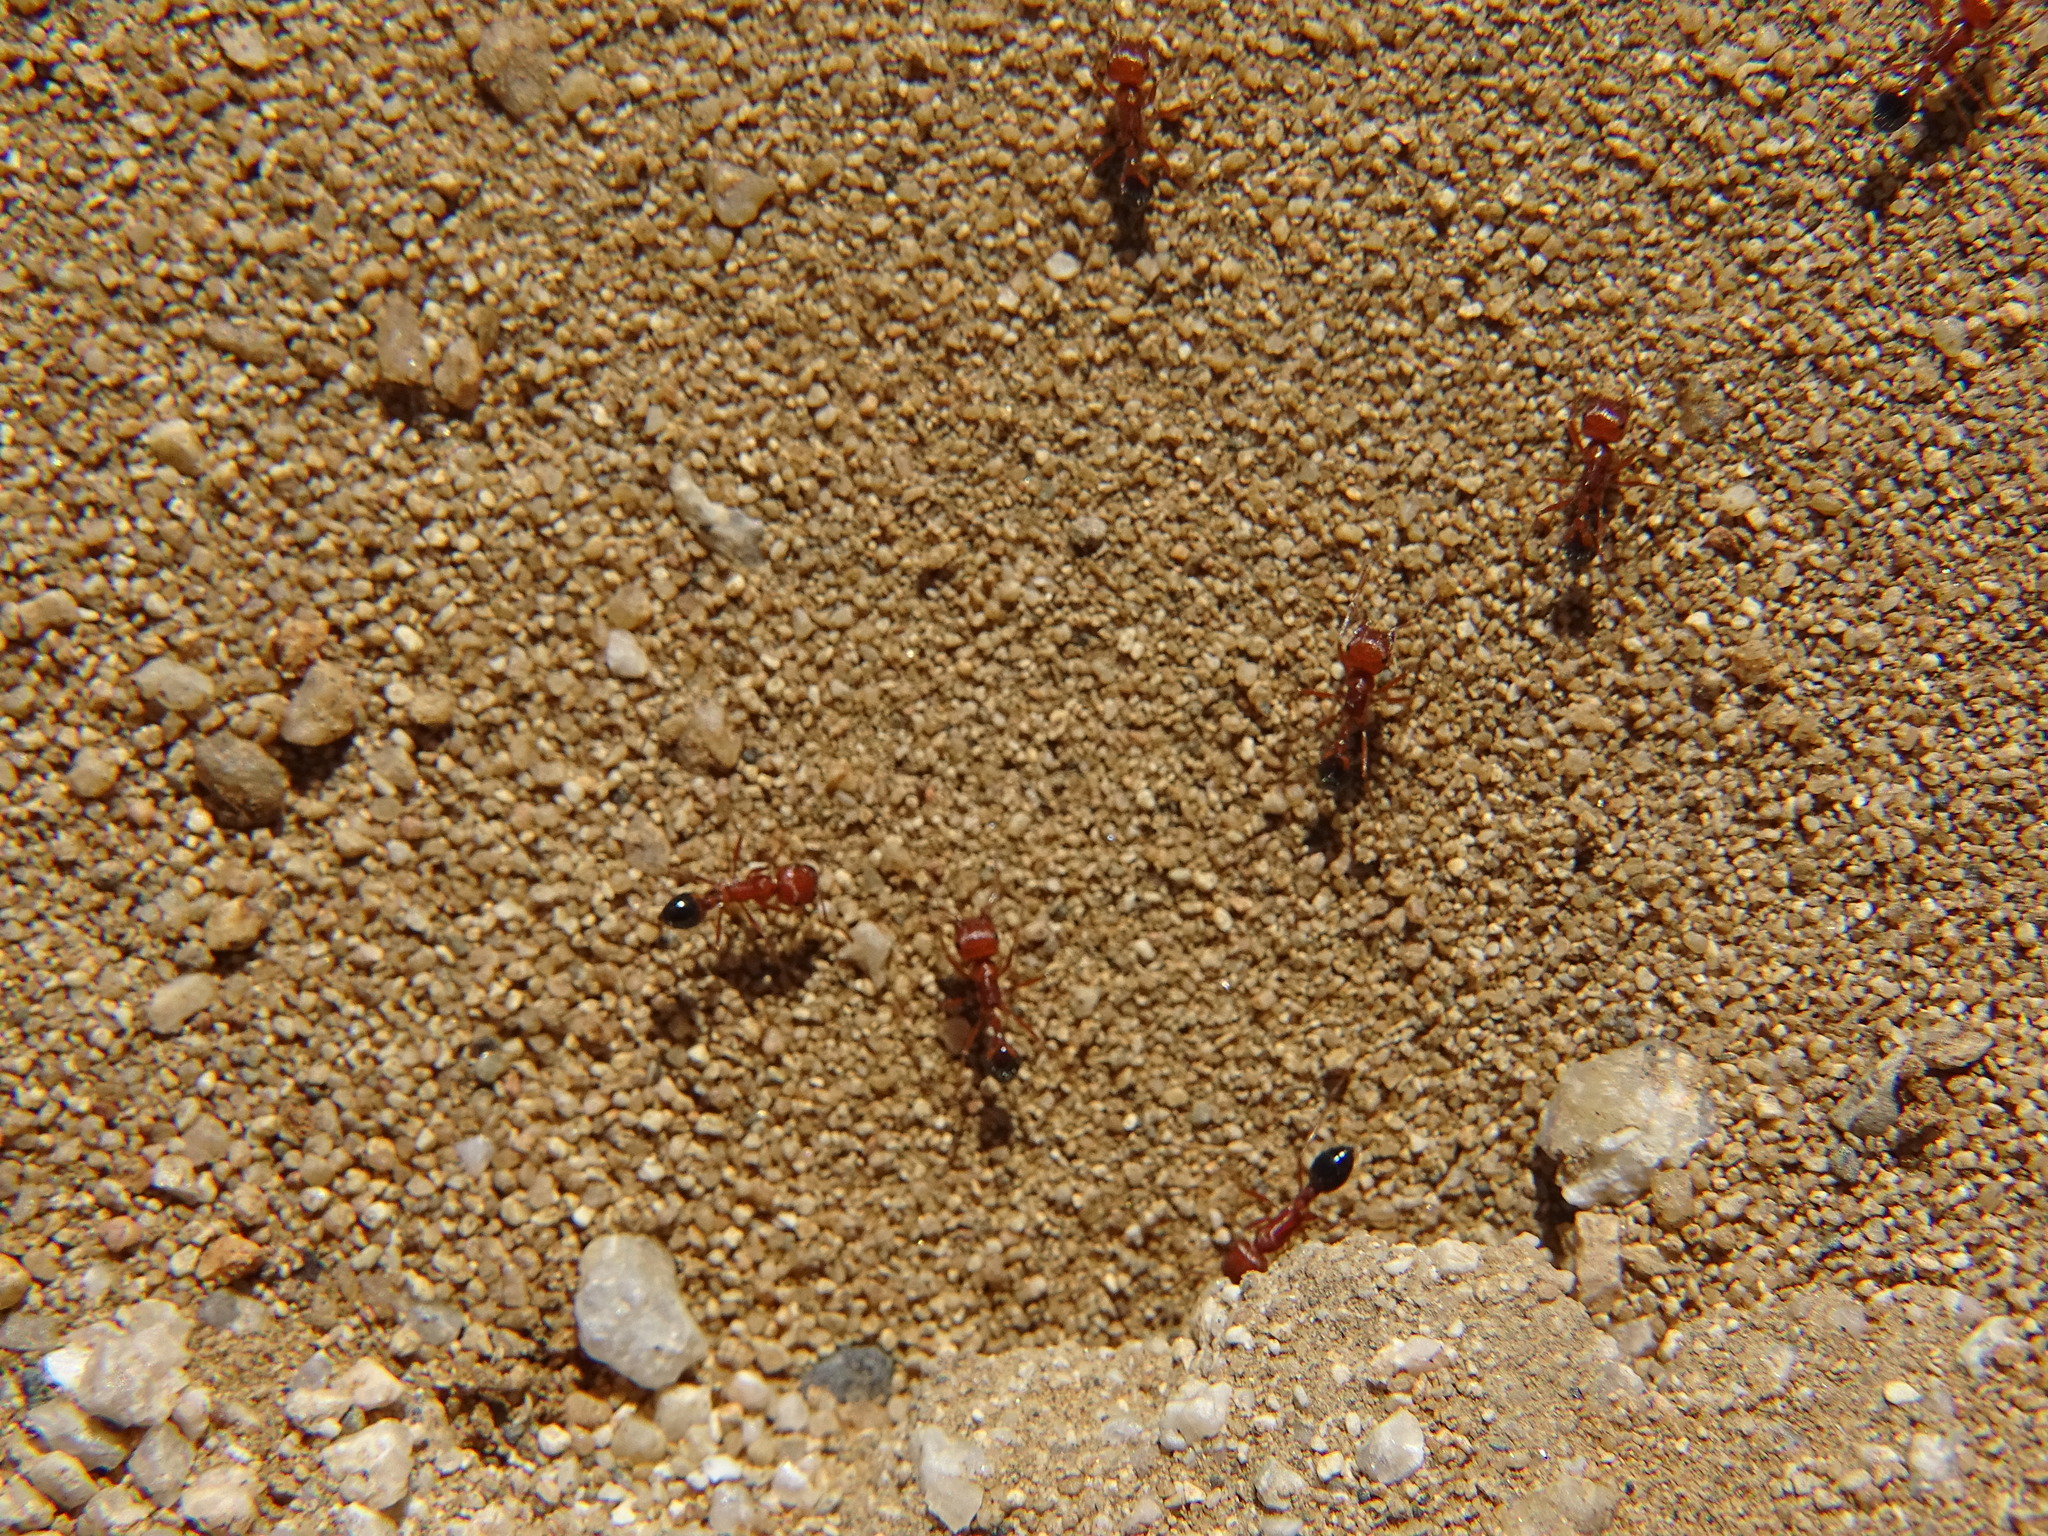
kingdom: Animalia
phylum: Arthropoda
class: Insecta
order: Hymenoptera
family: Formicidae
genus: Pogonomyrmex
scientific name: Pogonomyrmex californicus
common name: California harvester ant
